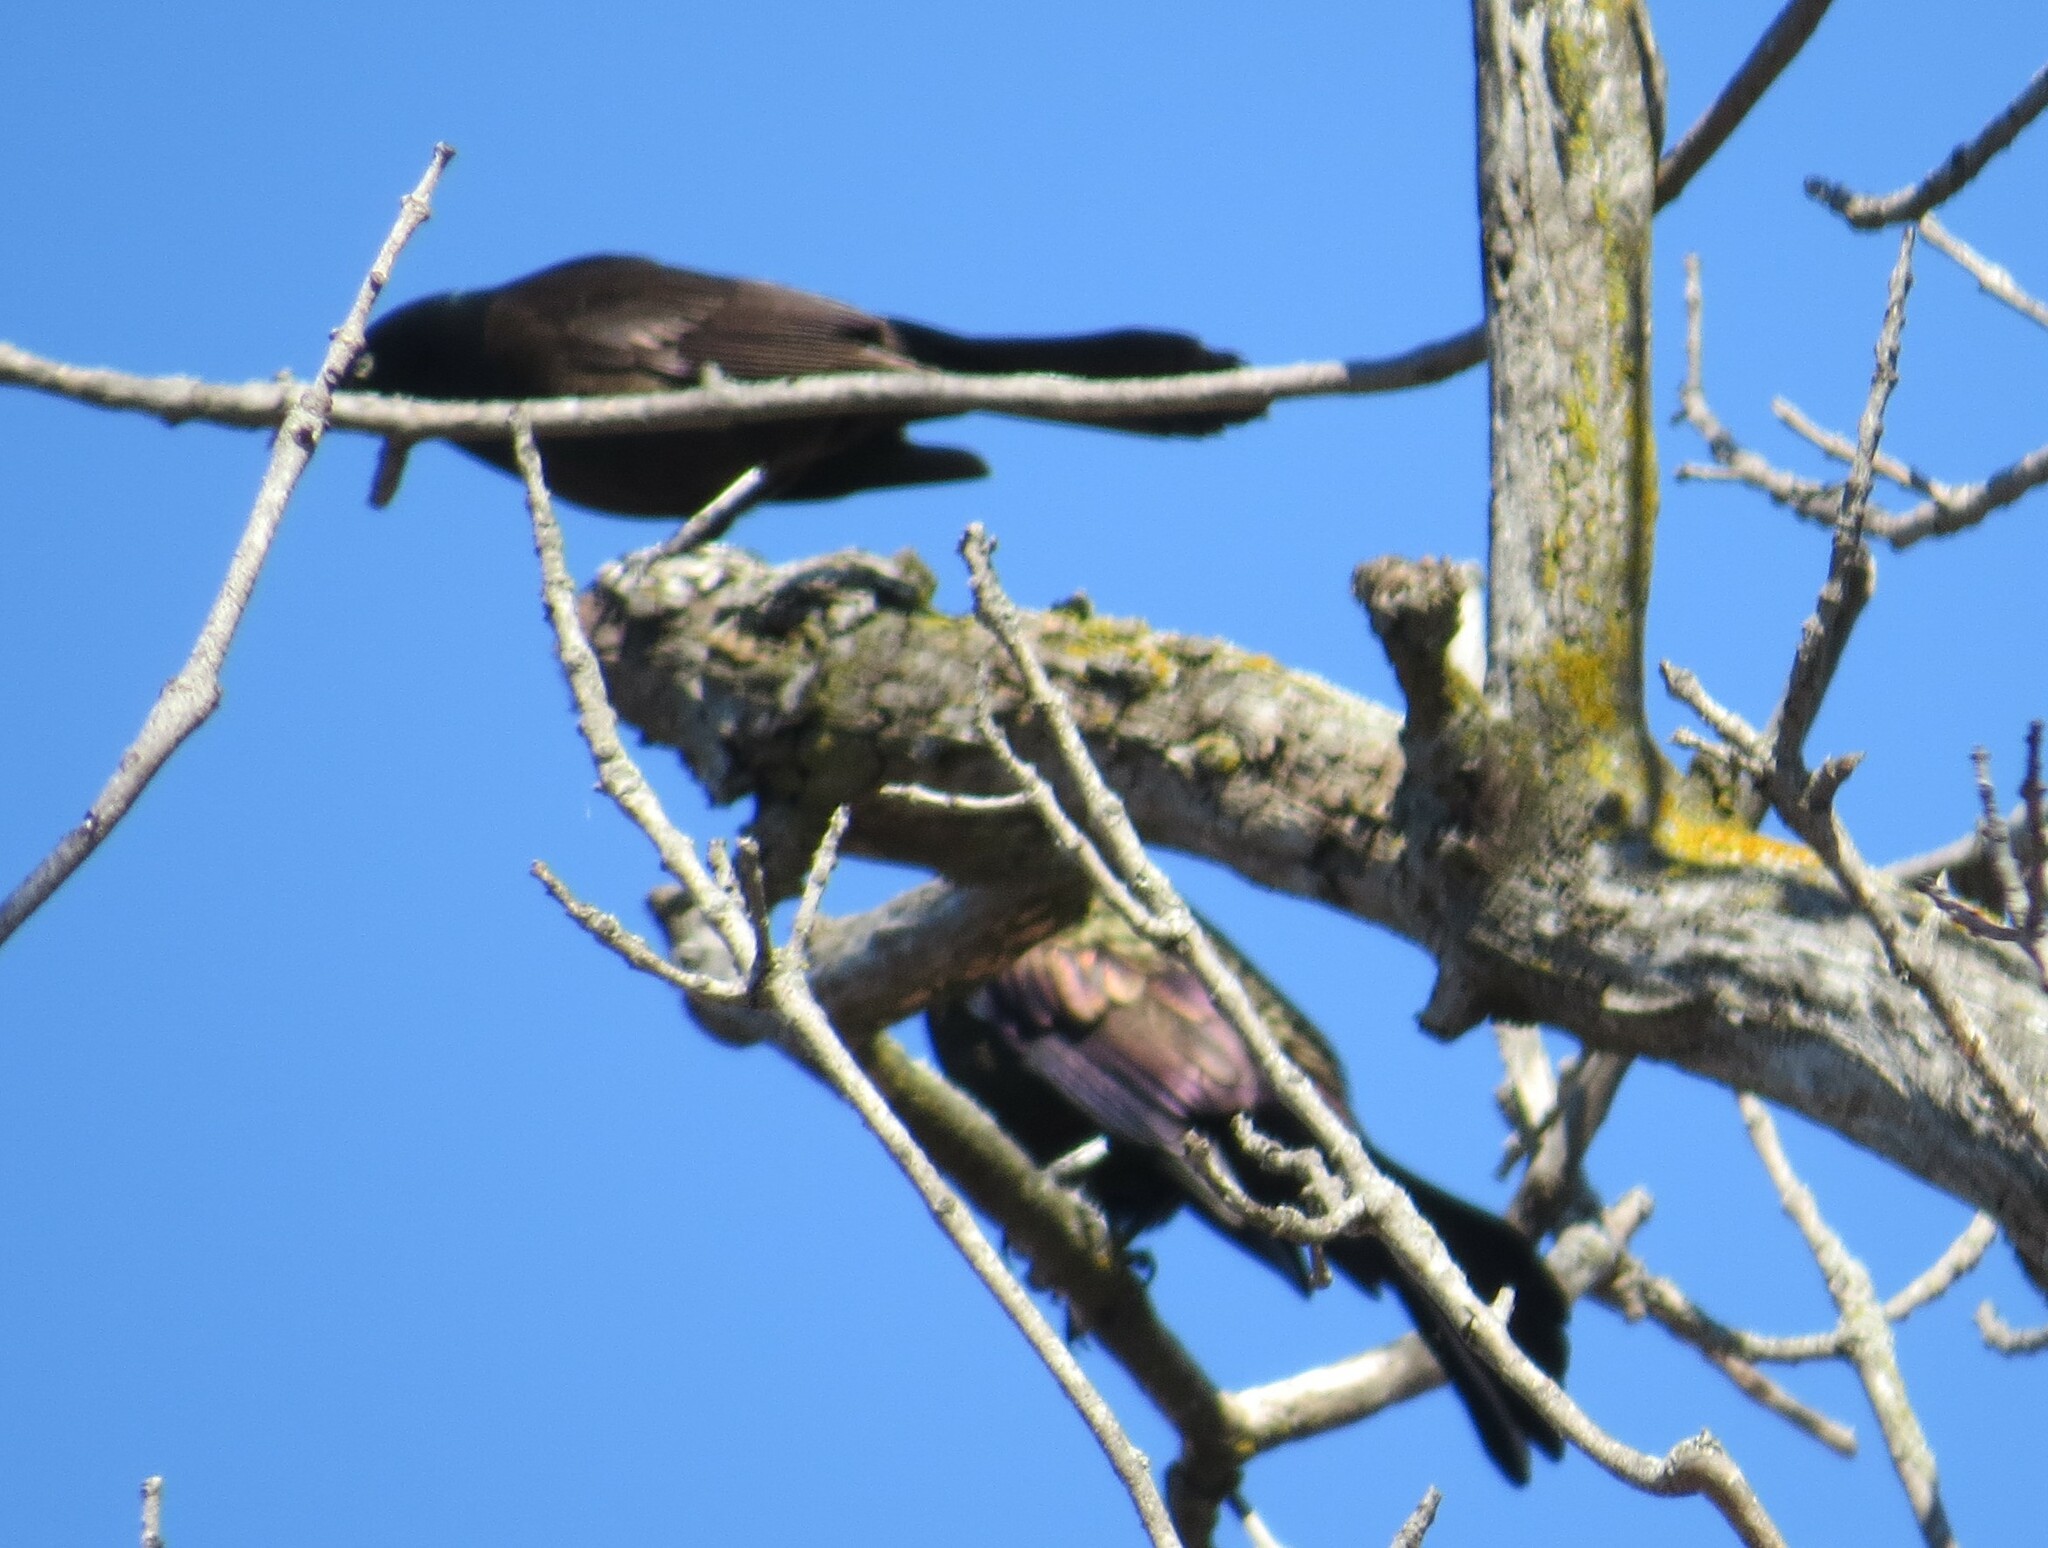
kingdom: Animalia
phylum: Chordata
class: Aves
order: Passeriformes
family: Icteridae
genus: Quiscalus
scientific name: Quiscalus quiscula
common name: Common grackle
